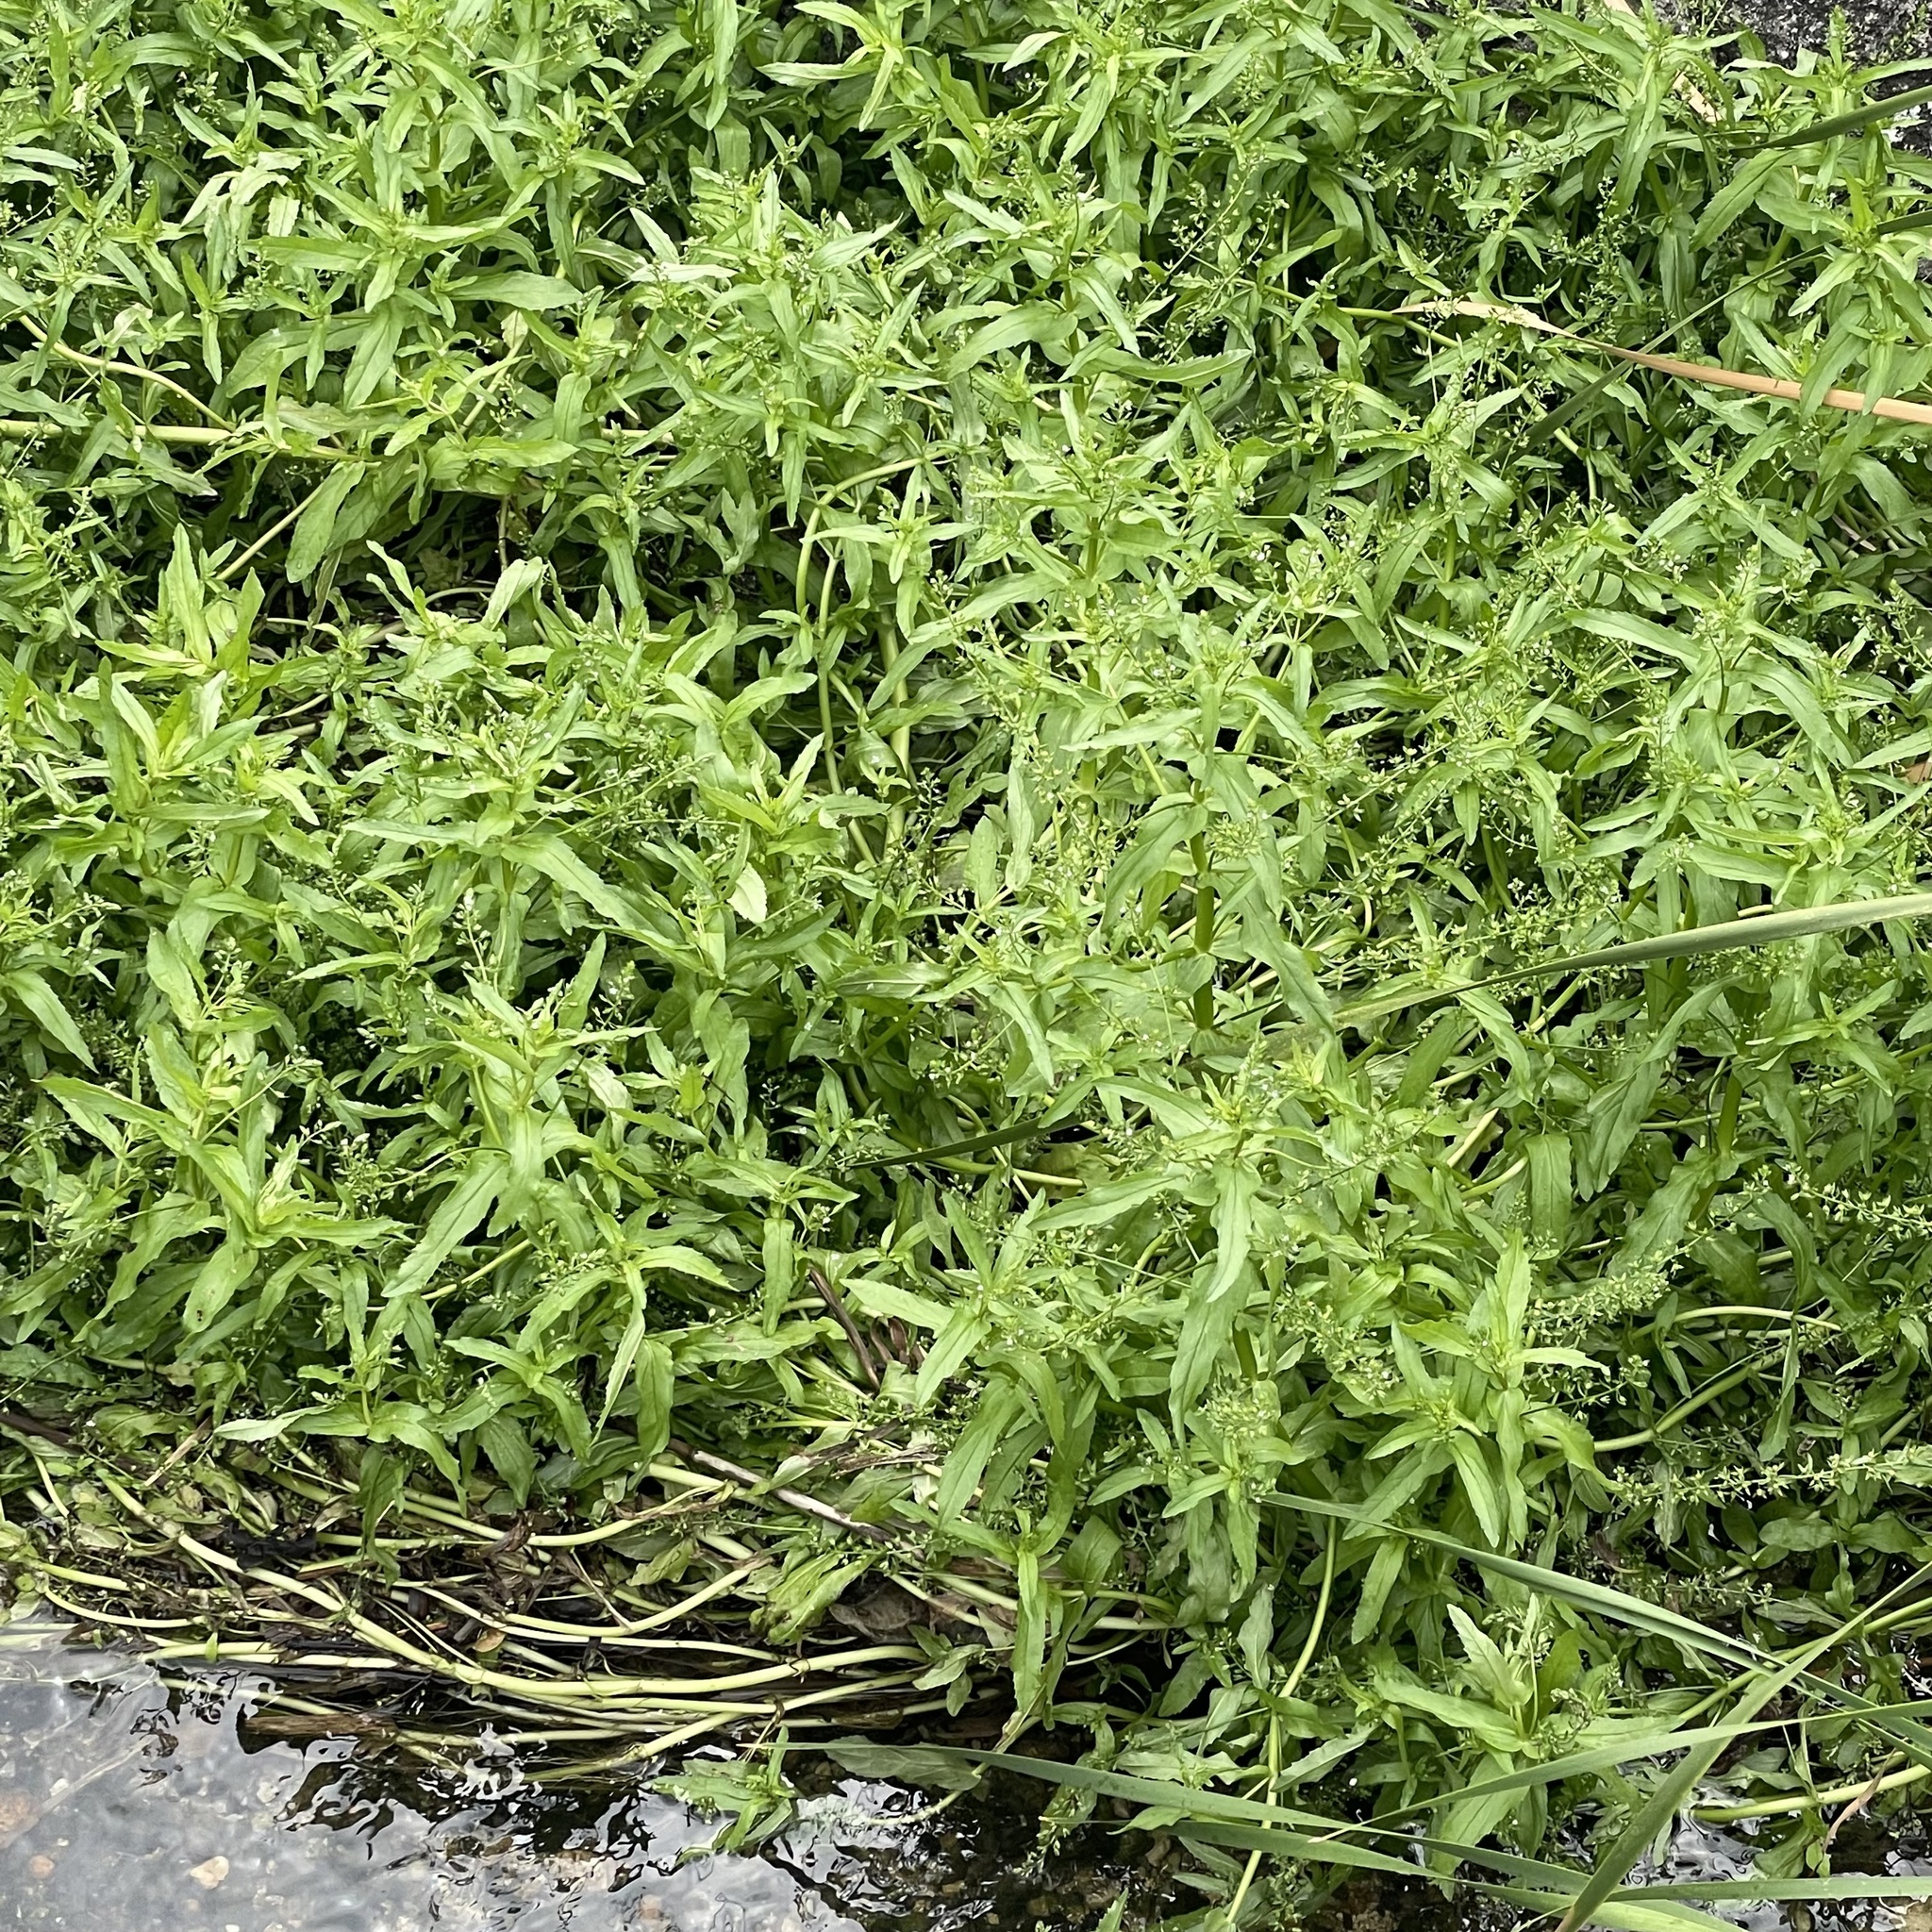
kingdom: Plantae
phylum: Tracheophyta
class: Magnoliopsida
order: Lamiales
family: Plantaginaceae
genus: Veronica
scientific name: Veronica undulata
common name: Undulate speedwell
